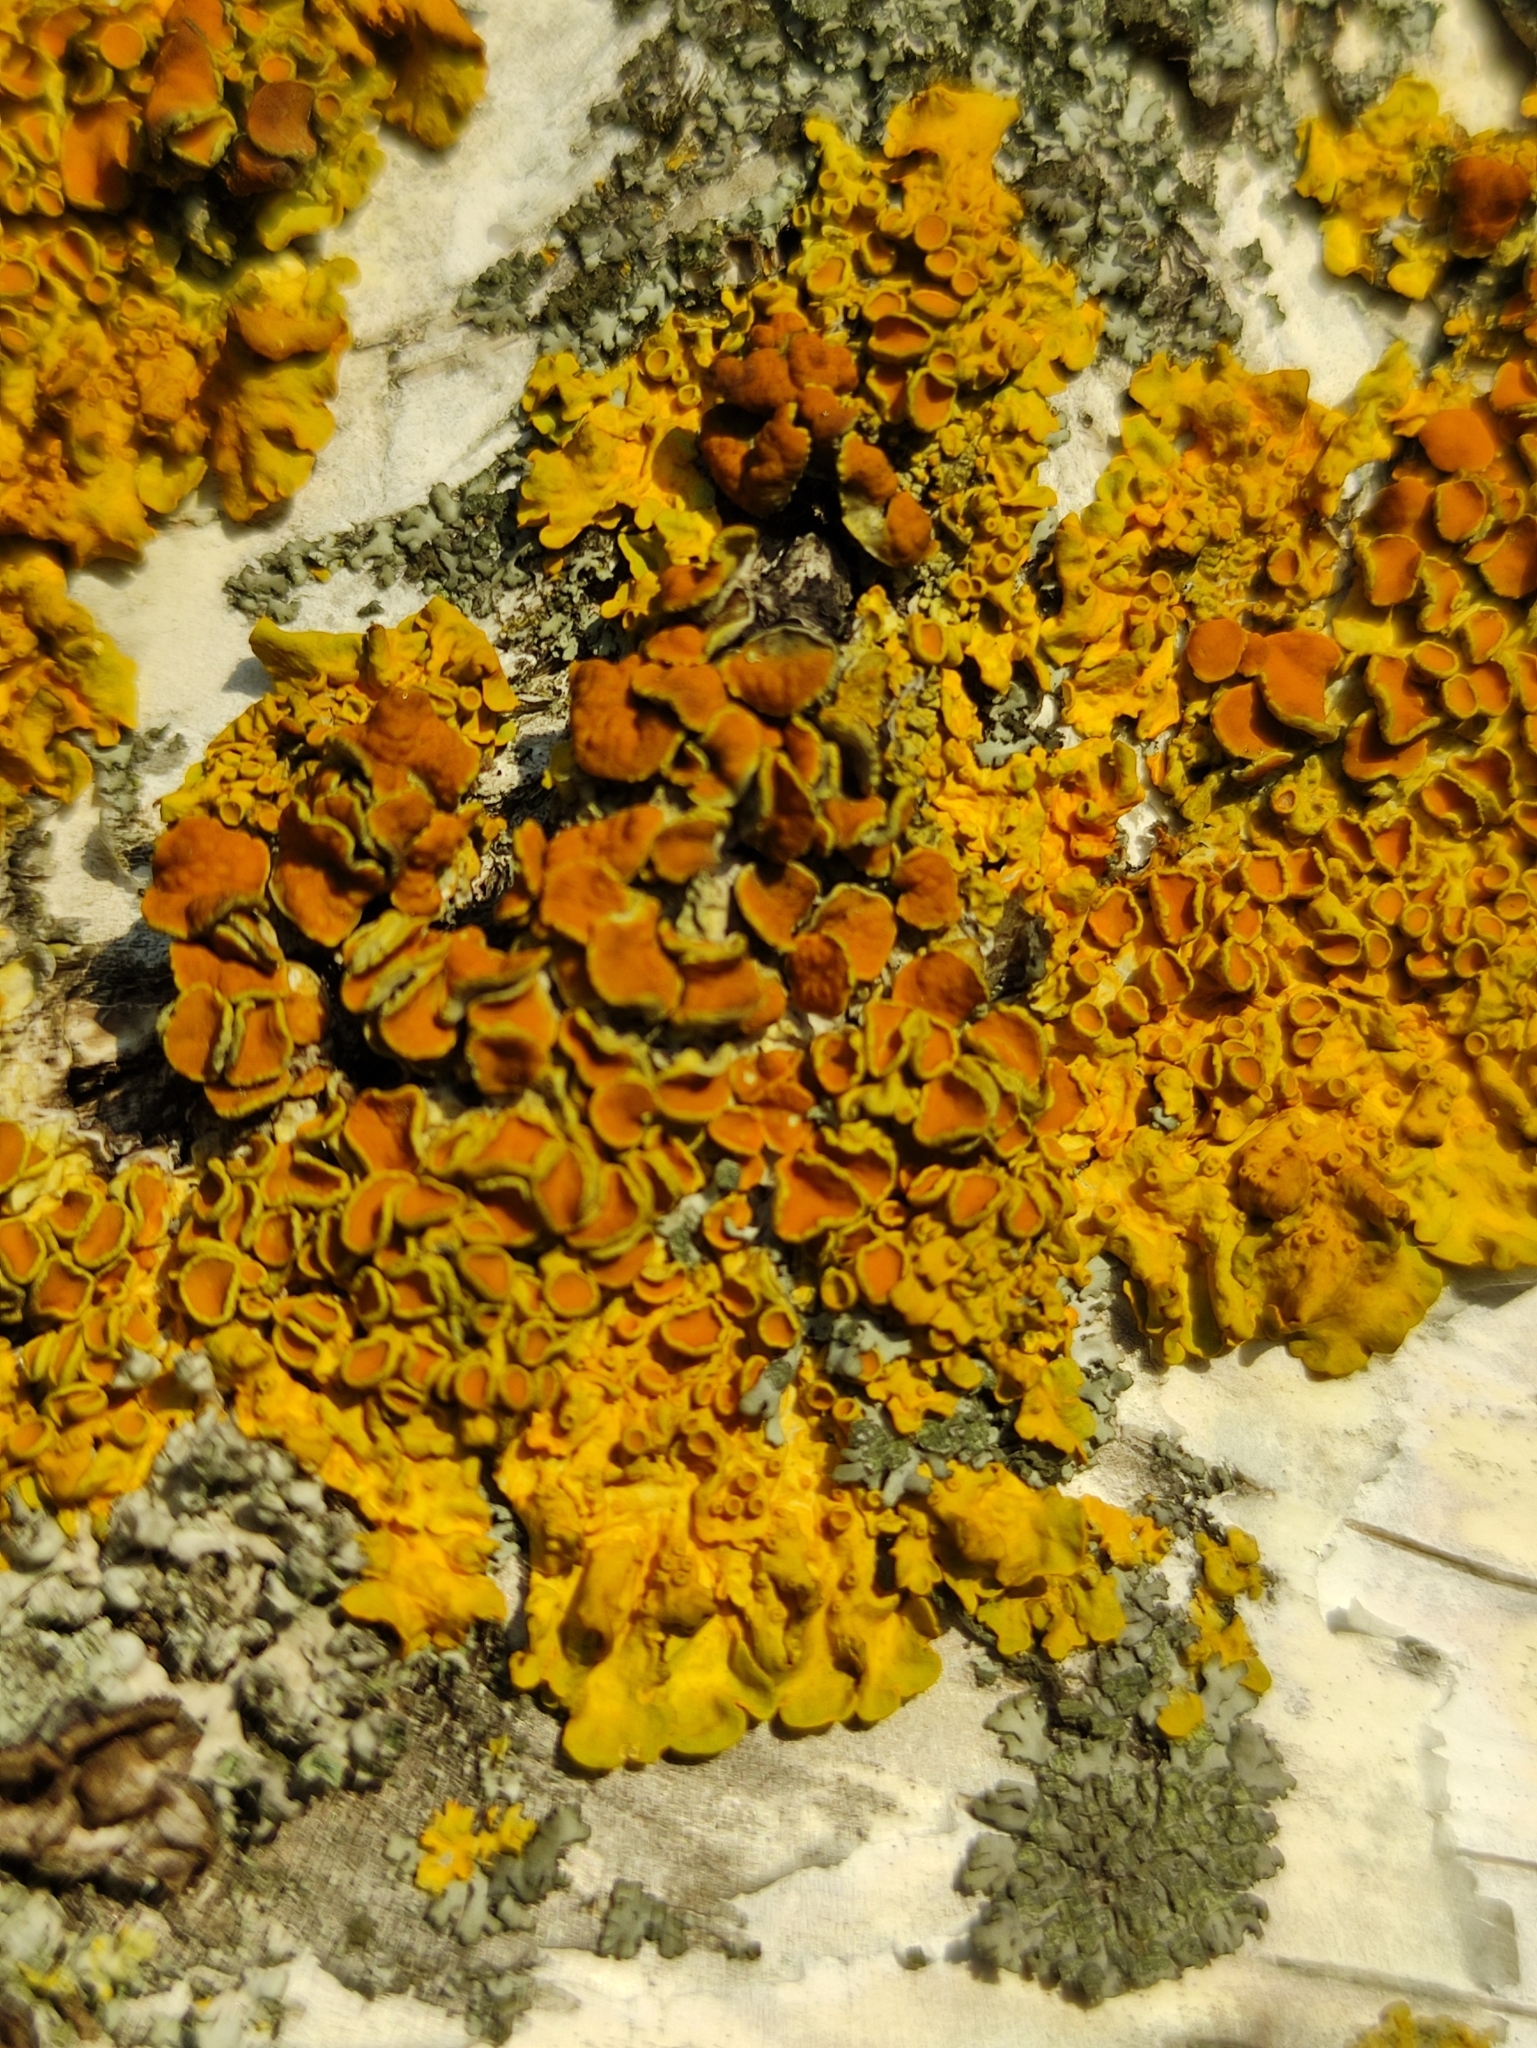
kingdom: Fungi
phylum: Ascomycota
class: Lecanoromycetes
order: Teloschistales
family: Teloschistaceae
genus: Xanthoria
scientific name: Xanthoria parietina
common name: Common orange lichen
